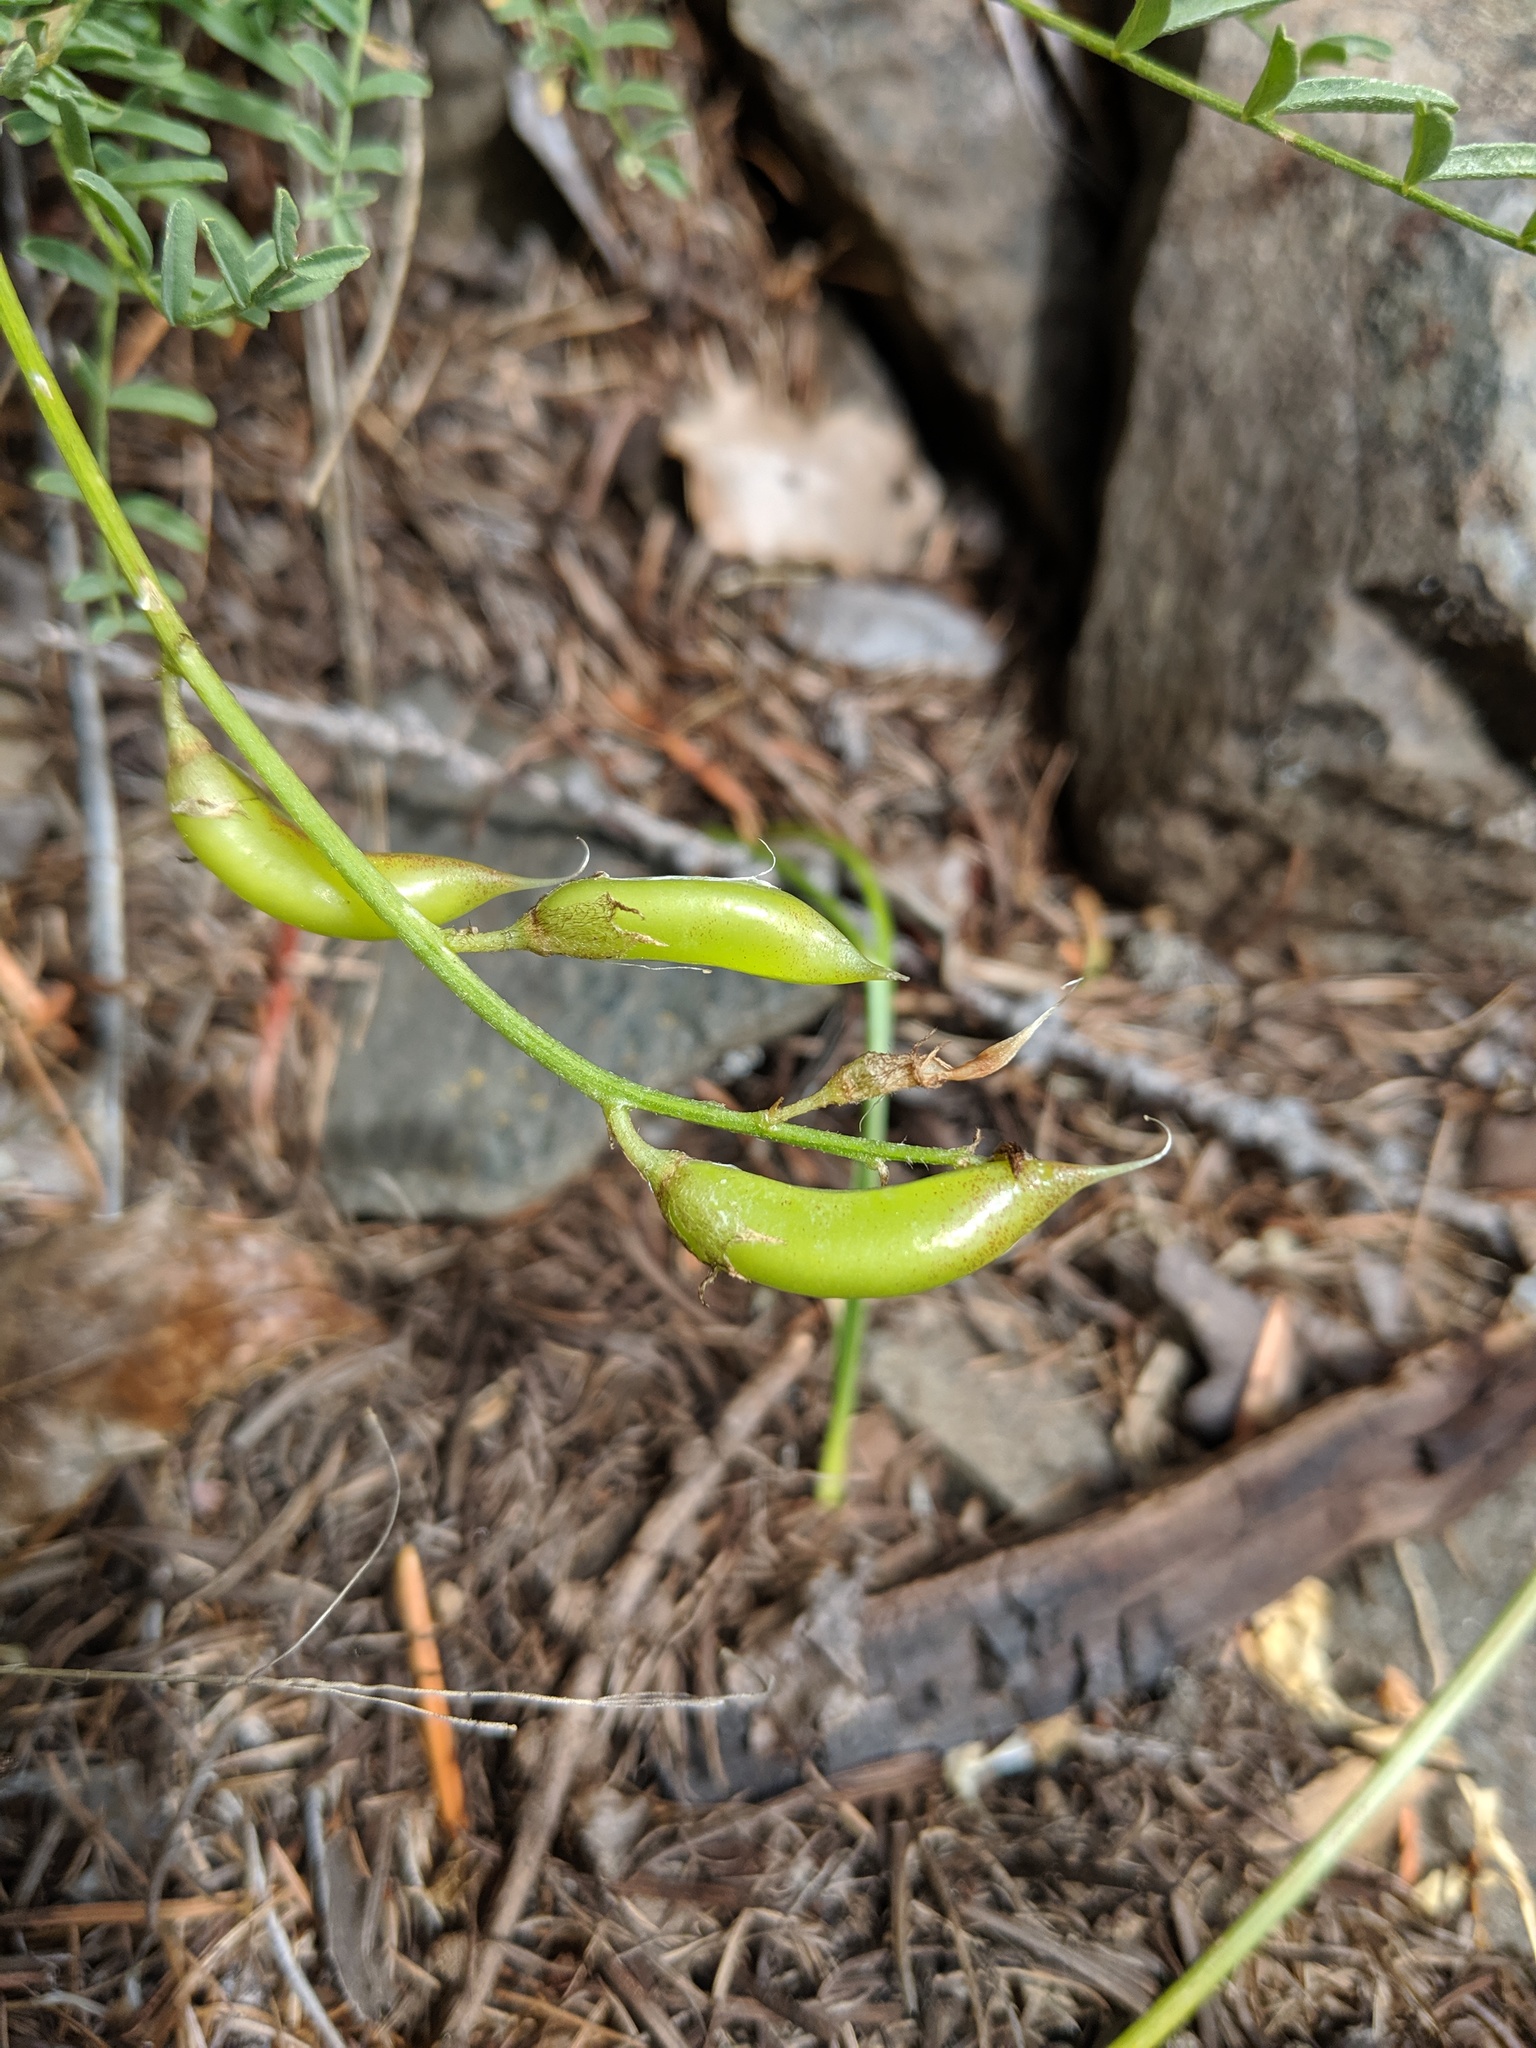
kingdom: Plantae
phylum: Tracheophyta
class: Magnoliopsida
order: Fabales
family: Fabaceae
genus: Astragalus
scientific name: Astragalus reventiformis
